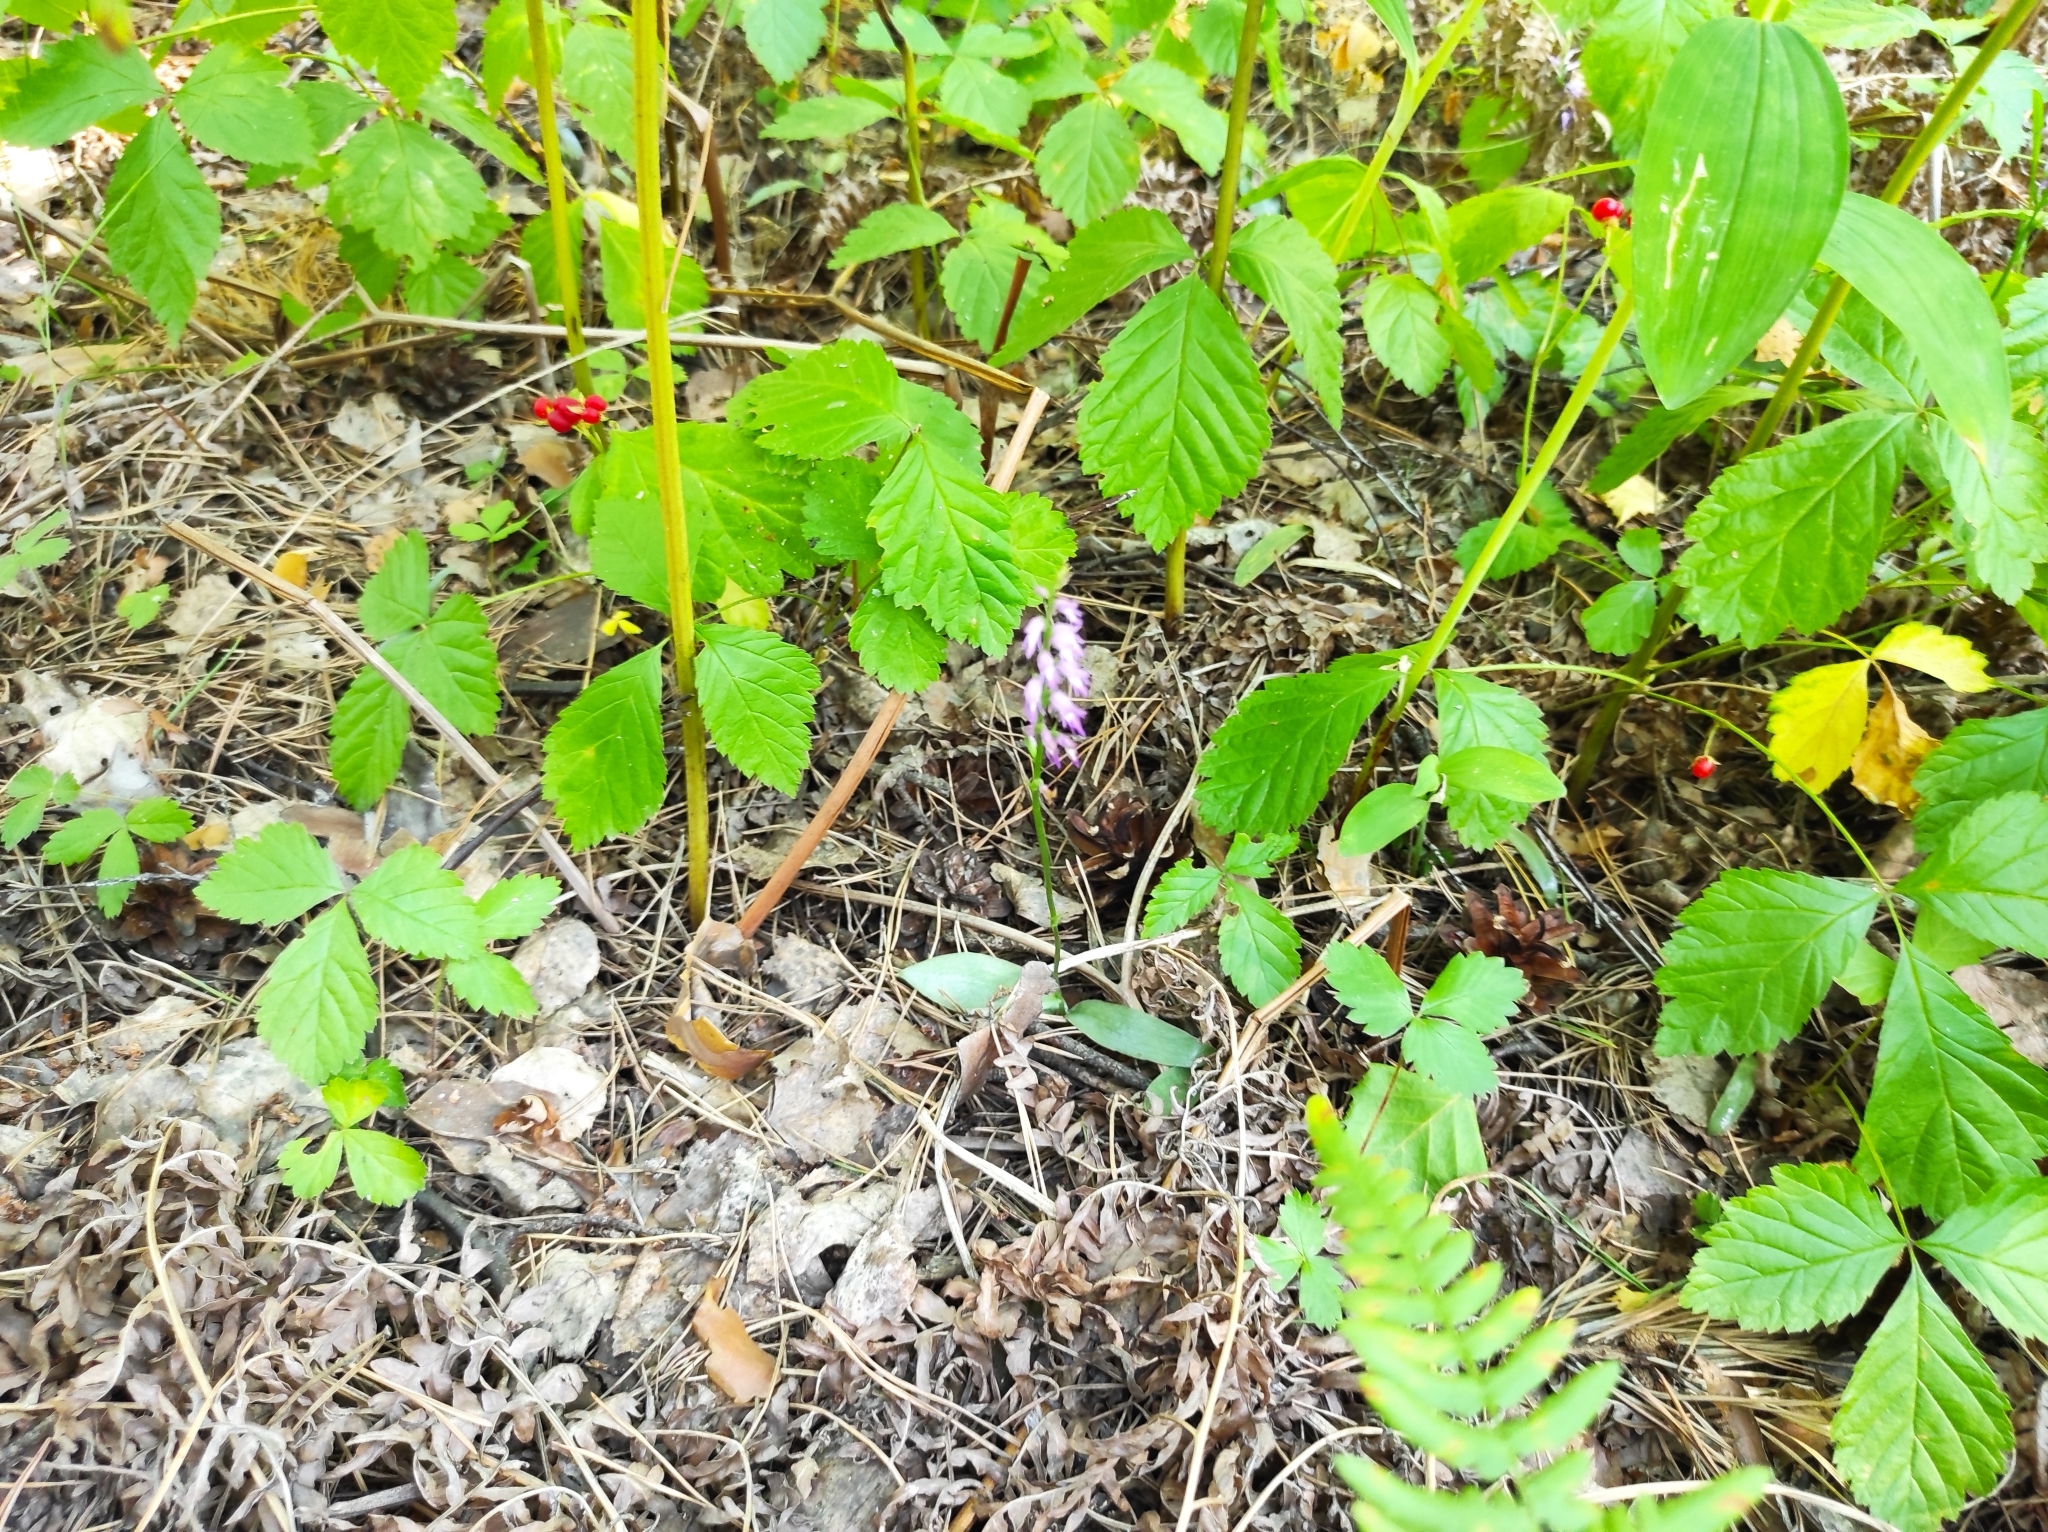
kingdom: Plantae
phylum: Tracheophyta
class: Liliopsida
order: Asparagales
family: Orchidaceae
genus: Hemipilia
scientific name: Hemipilia cucullata
